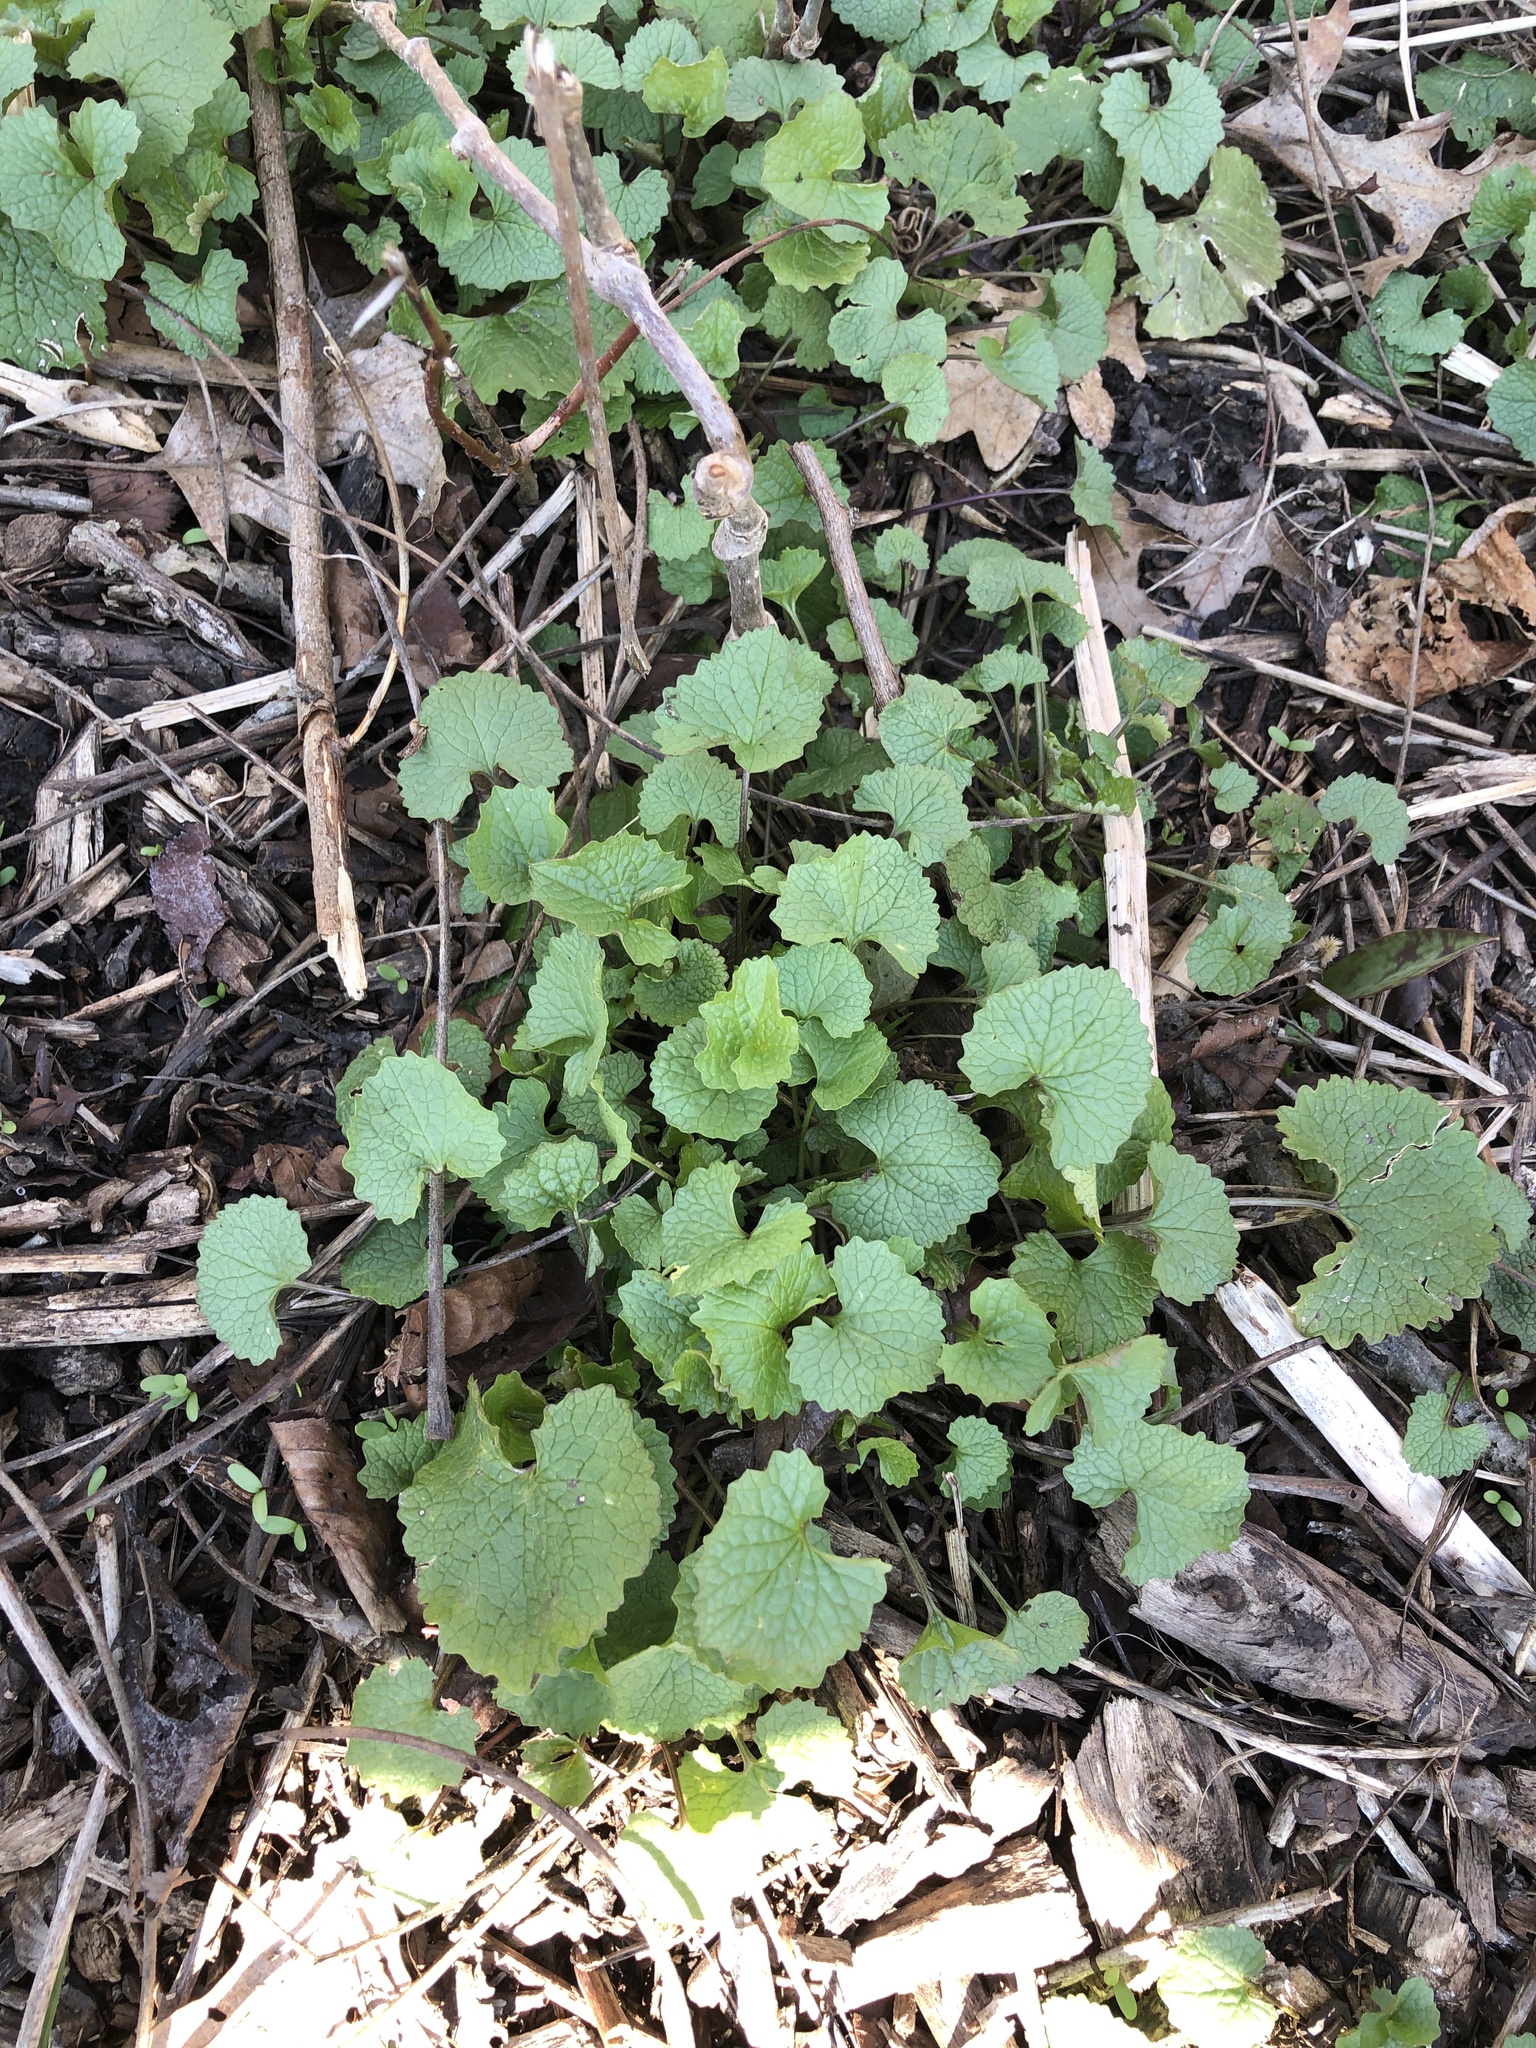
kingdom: Plantae
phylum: Tracheophyta
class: Magnoliopsida
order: Brassicales
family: Brassicaceae
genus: Alliaria
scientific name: Alliaria petiolata
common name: Garlic mustard
